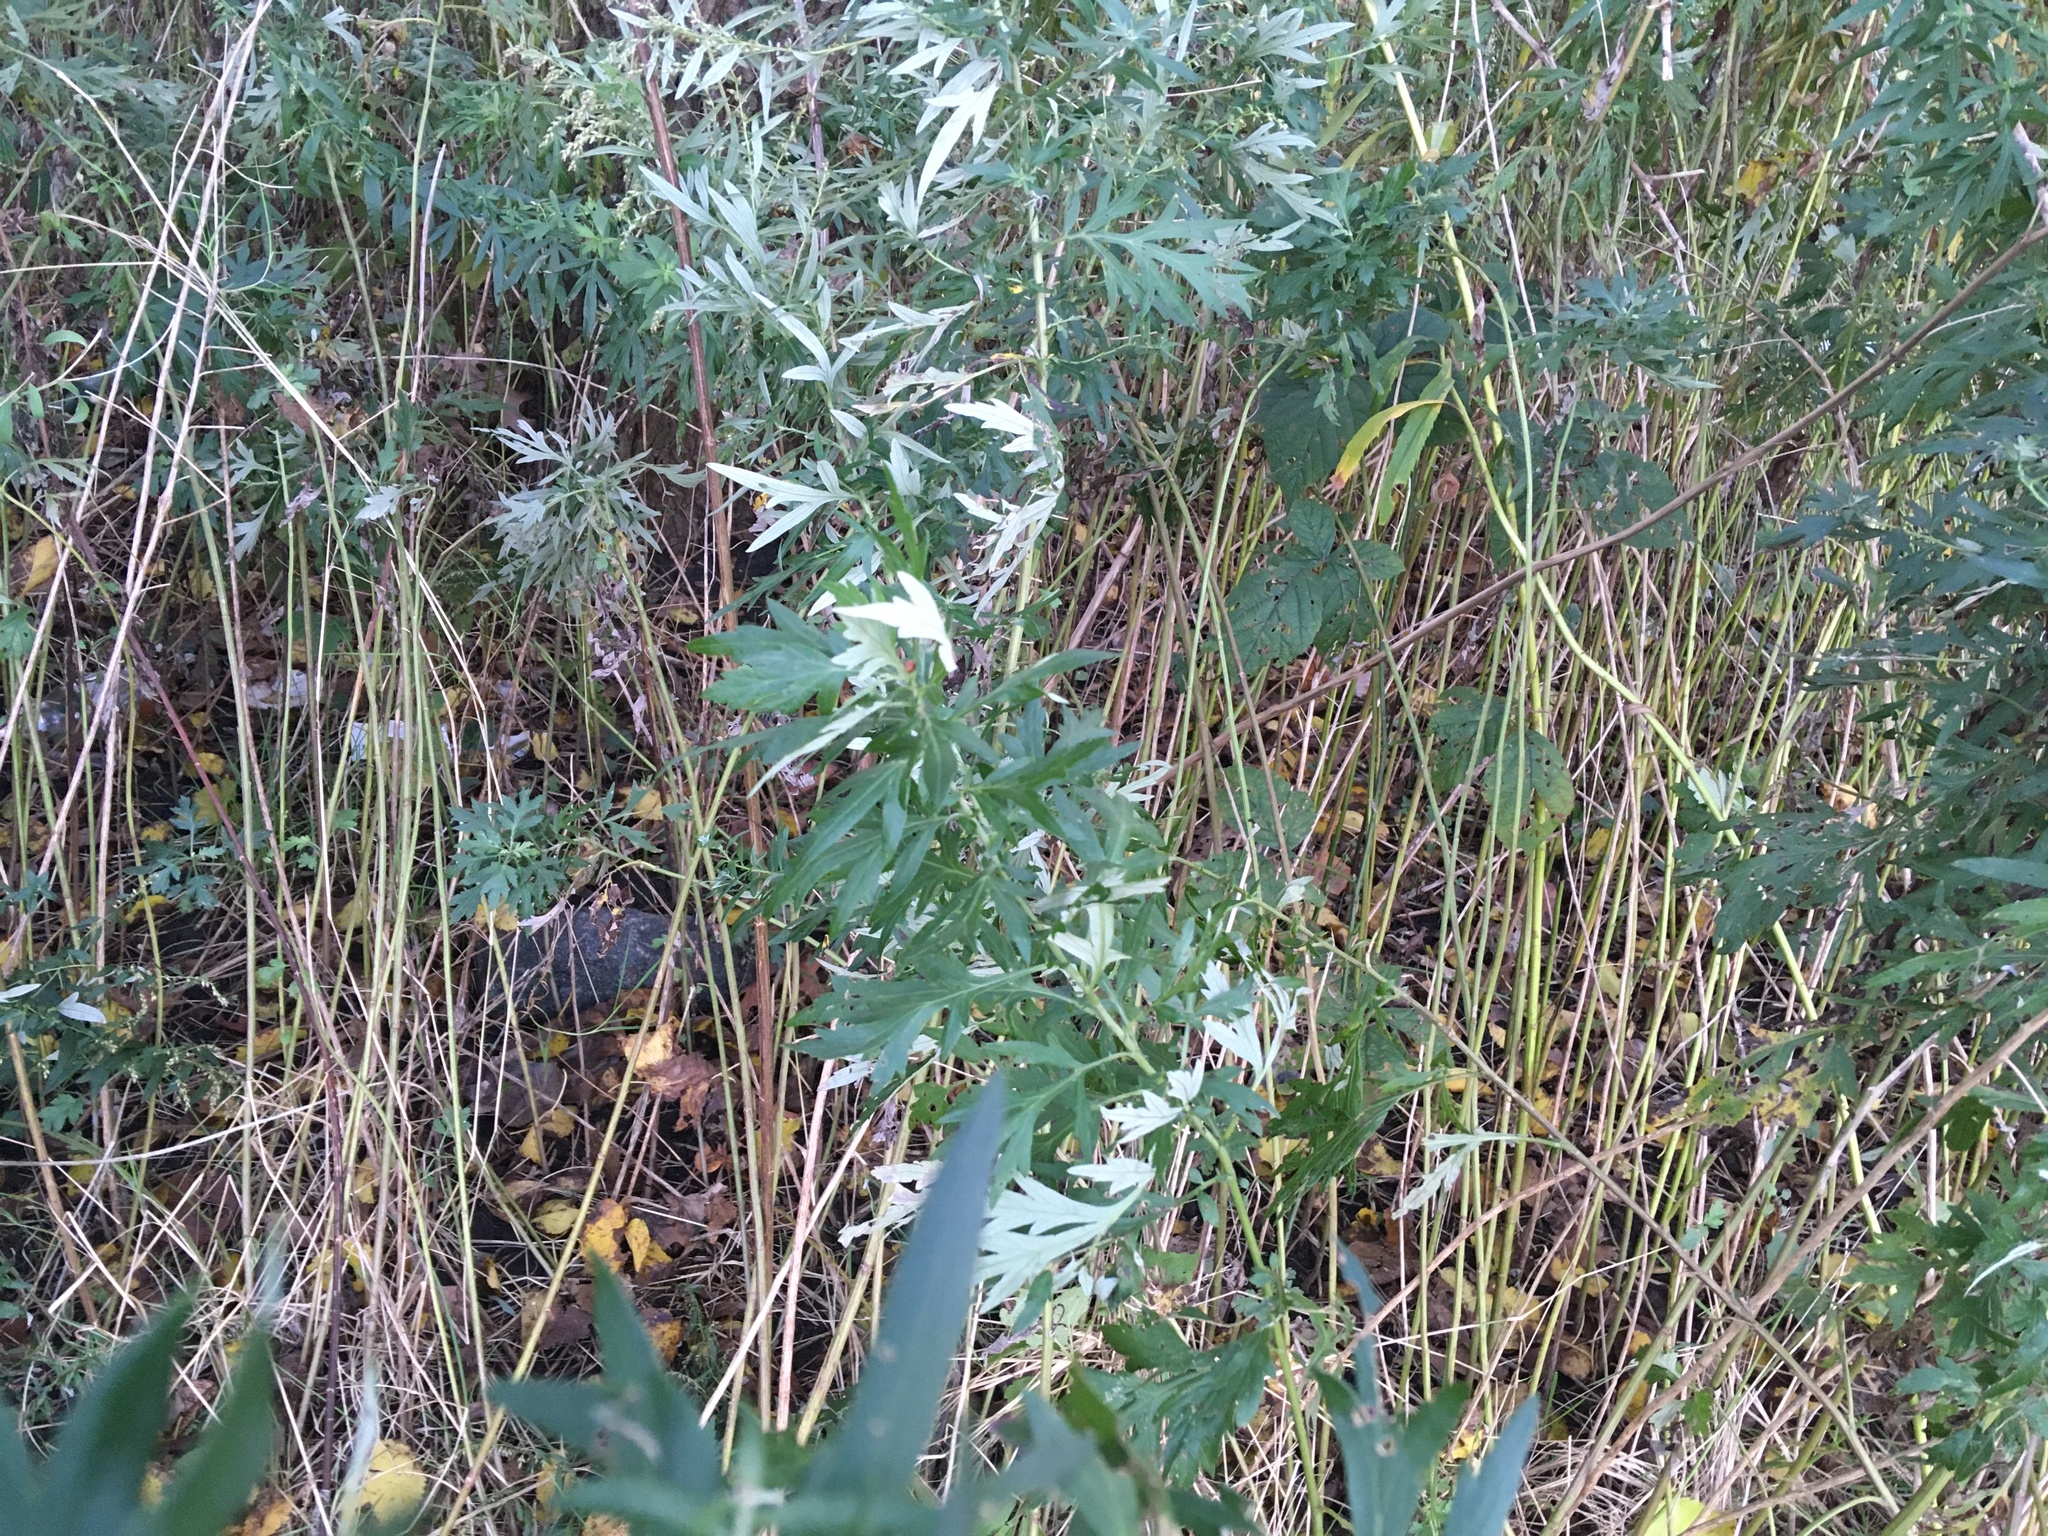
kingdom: Plantae
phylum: Tracheophyta
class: Magnoliopsida
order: Asterales
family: Asteraceae
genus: Artemisia
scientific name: Artemisia vulgaris
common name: Mugwort
